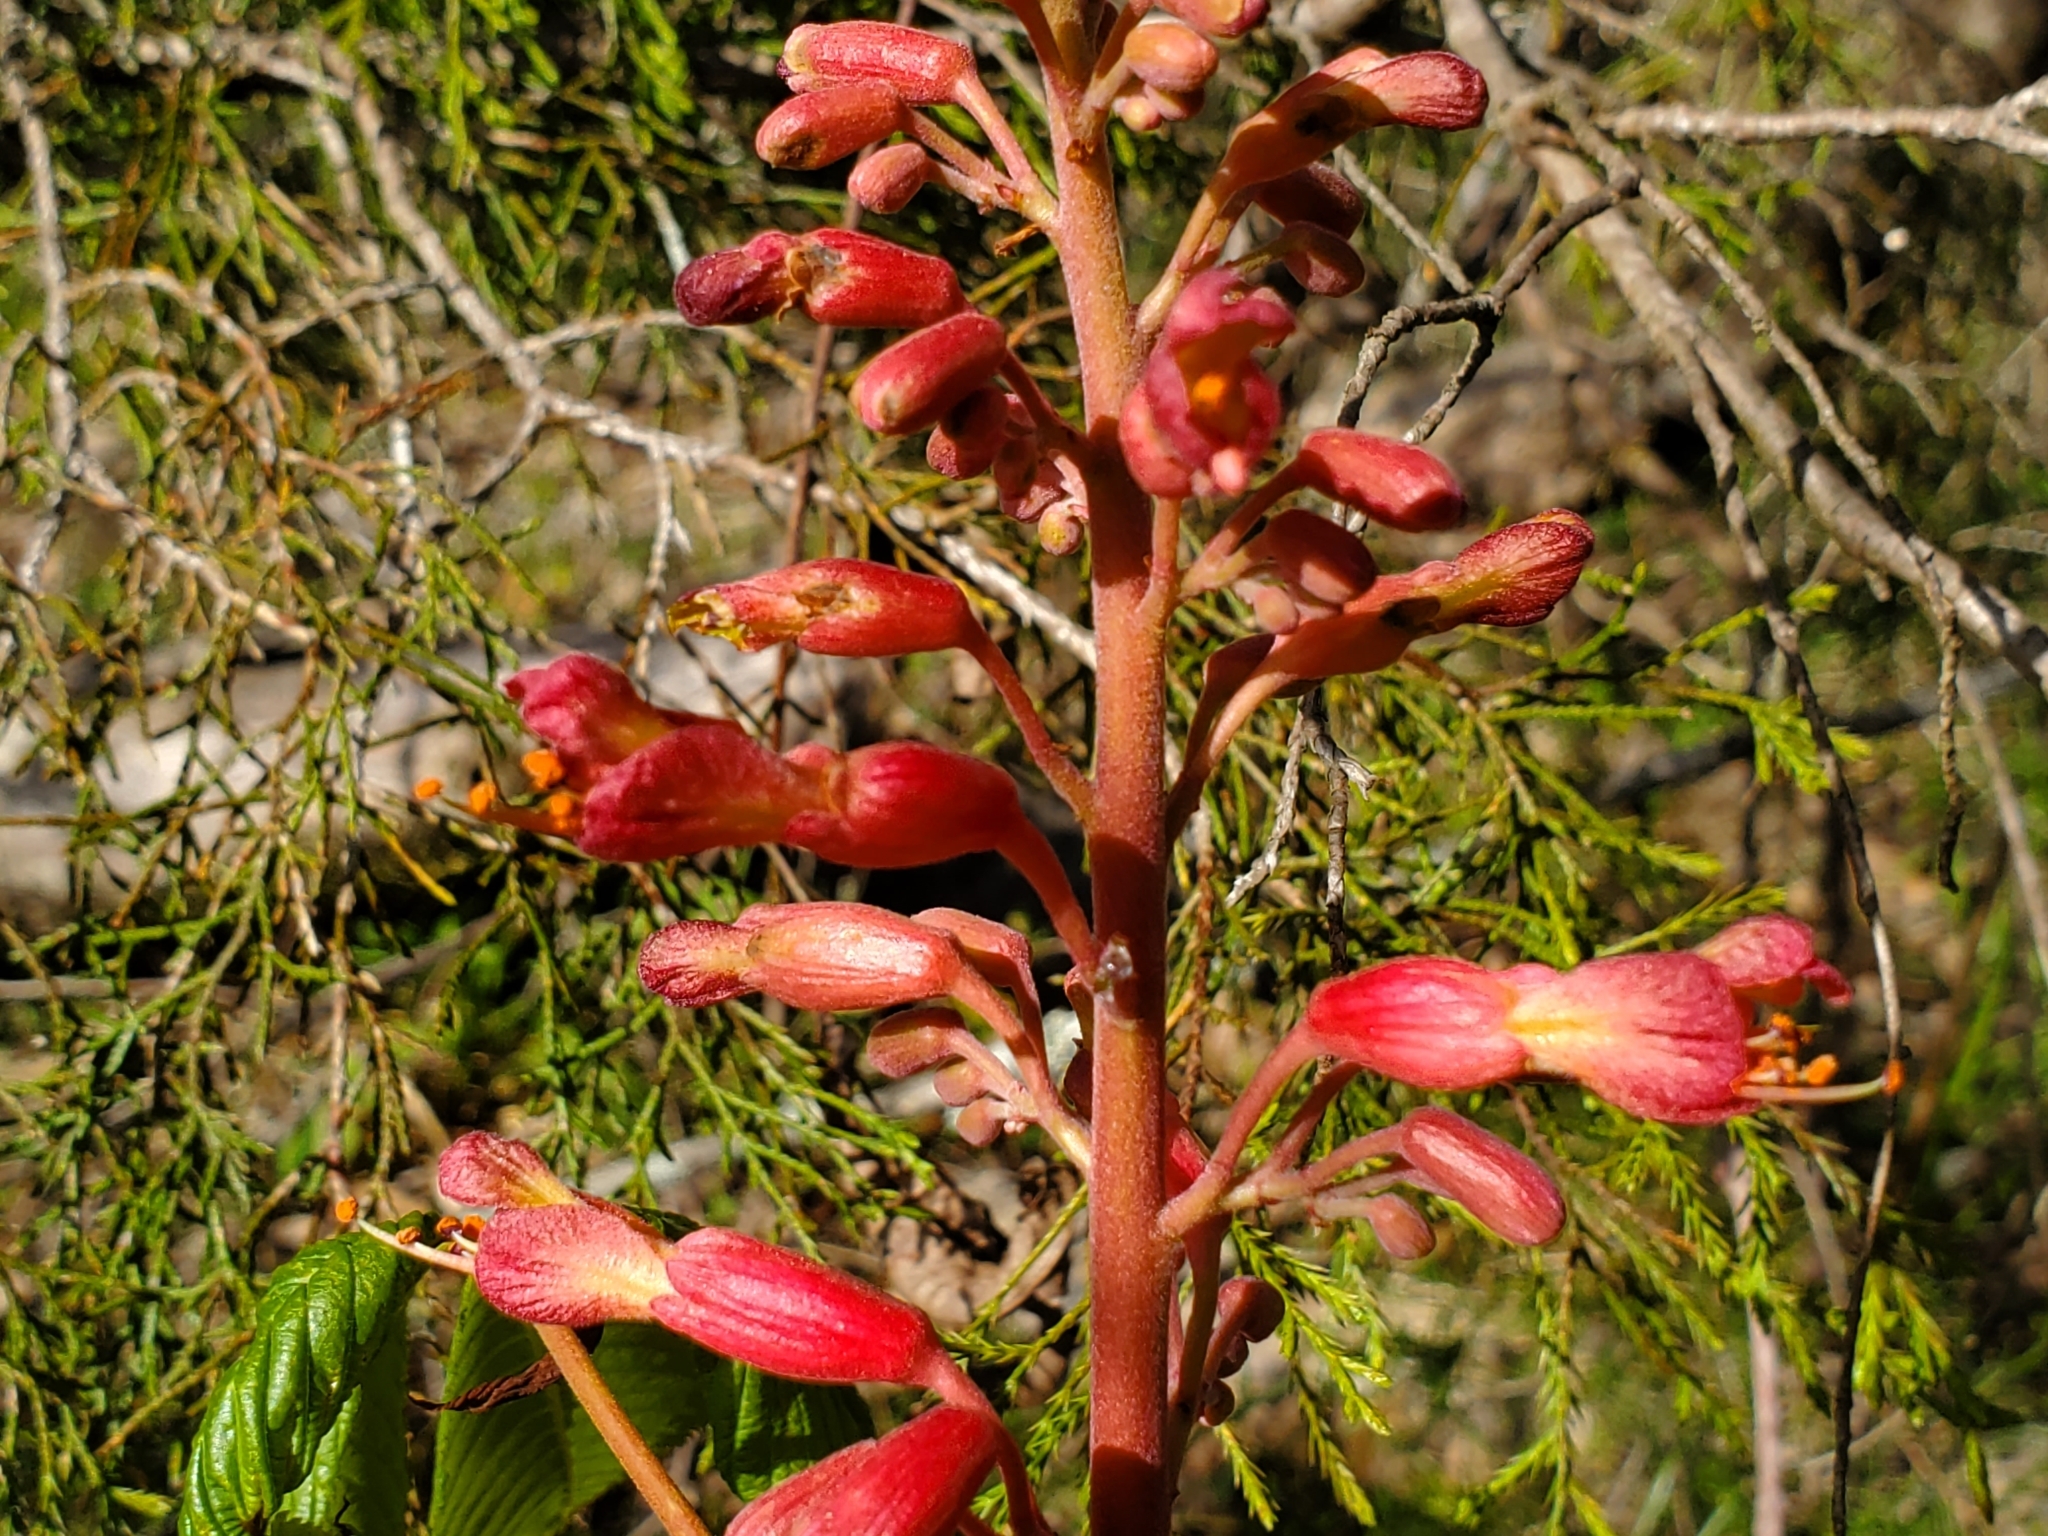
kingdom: Plantae
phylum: Tracheophyta
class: Magnoliopsida
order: Sapindales
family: Sapindaceae
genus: Aesculus
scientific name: Aesculus pavia
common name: Red buckeye
